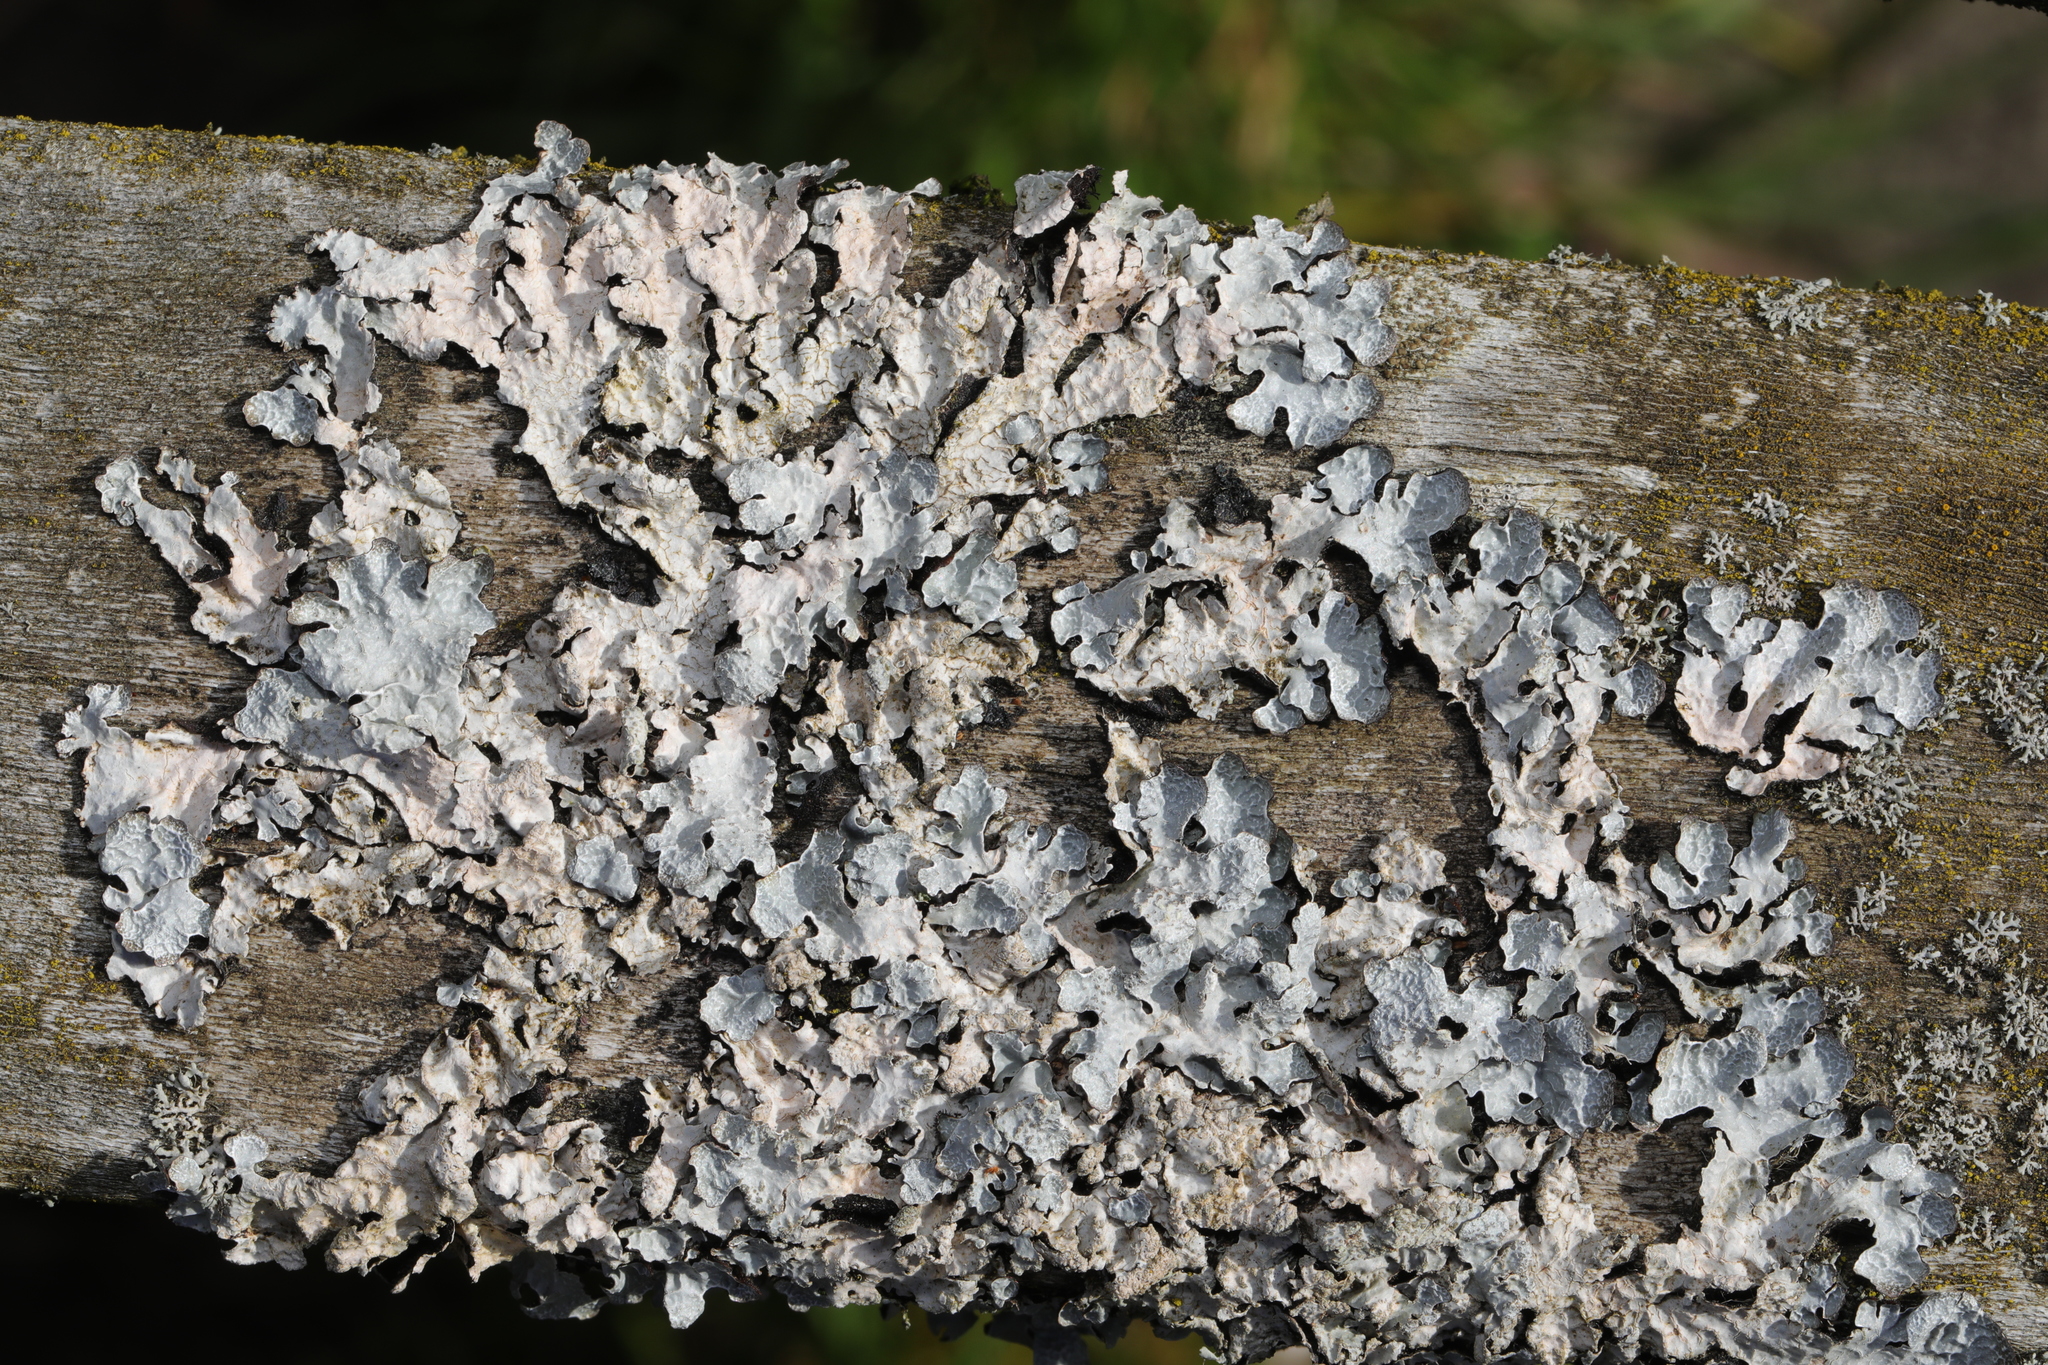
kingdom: Fungi
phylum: Ascomycota
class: Lecanoromycetes
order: Lecanorales
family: Parmeliaceae
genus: Parmelia
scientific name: Parmelia sulcata
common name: Netted shield lichen
